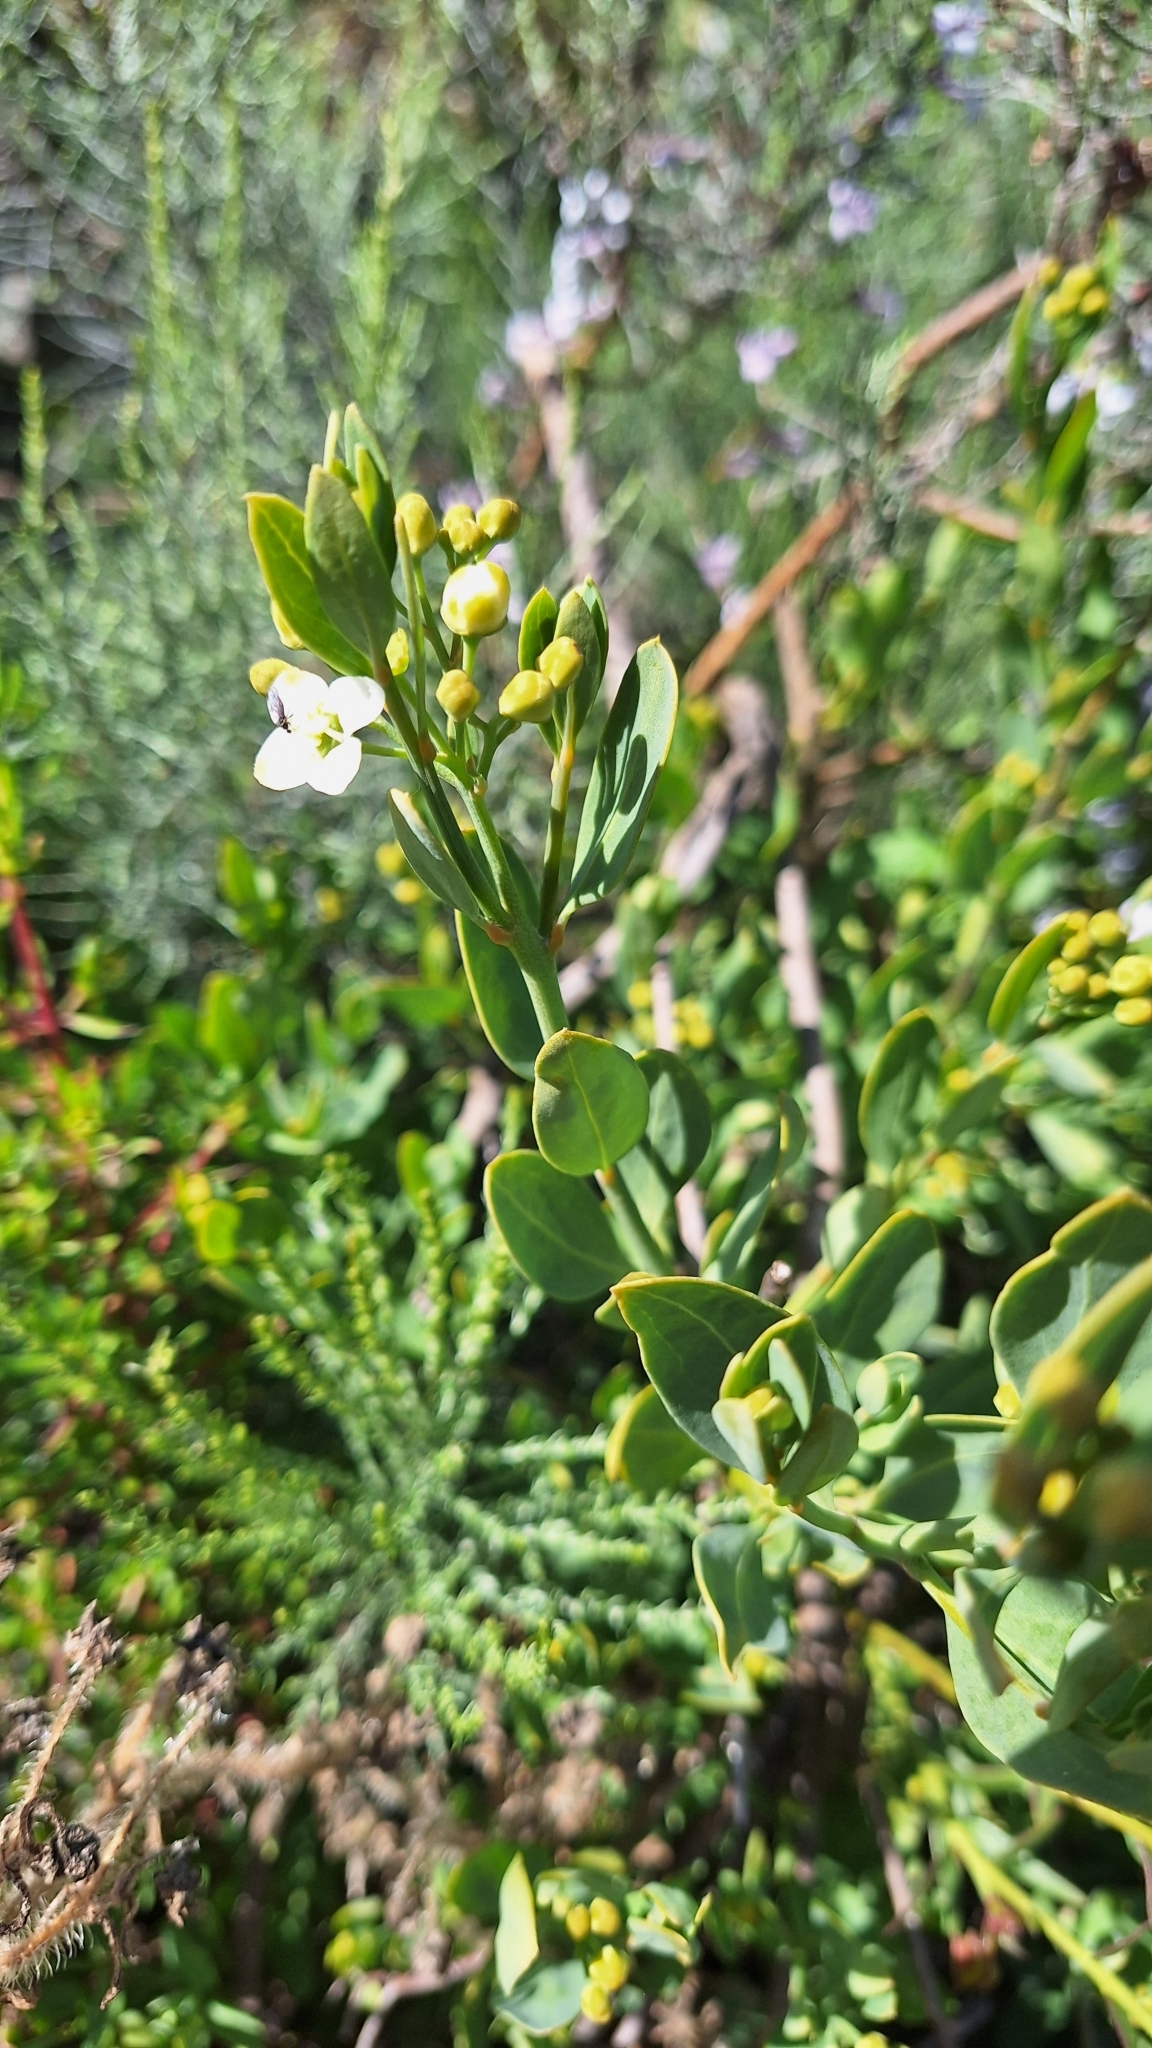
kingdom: Plantae
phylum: Tracheophyta
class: Magnoliopsida
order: Solanales
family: Montiniaceae
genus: Montinia
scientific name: Montinia caryophyllacea
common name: Wild clove-bush
